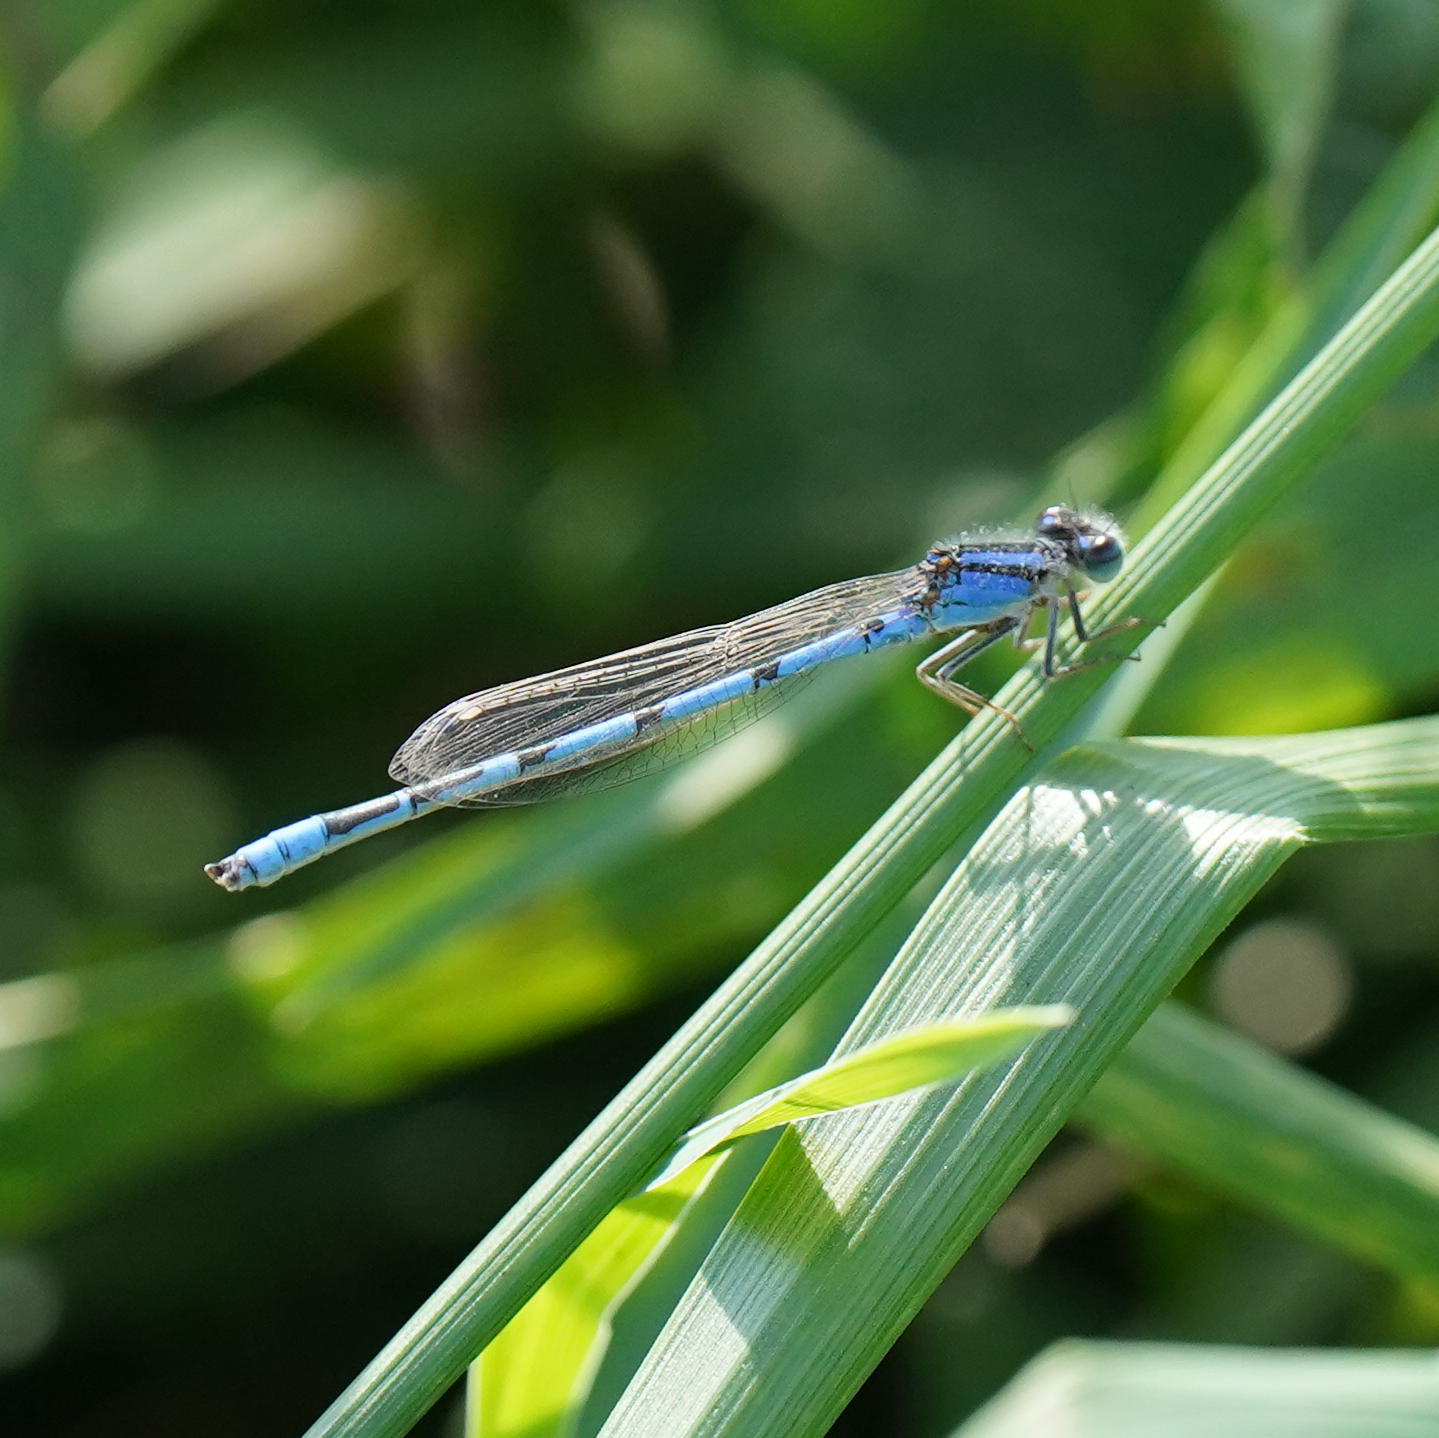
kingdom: Animalia
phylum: Arthropoda
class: Insecta
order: Odonata
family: Coenagrionidae
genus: Enallagma
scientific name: Enallagma civile
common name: Damselfly
